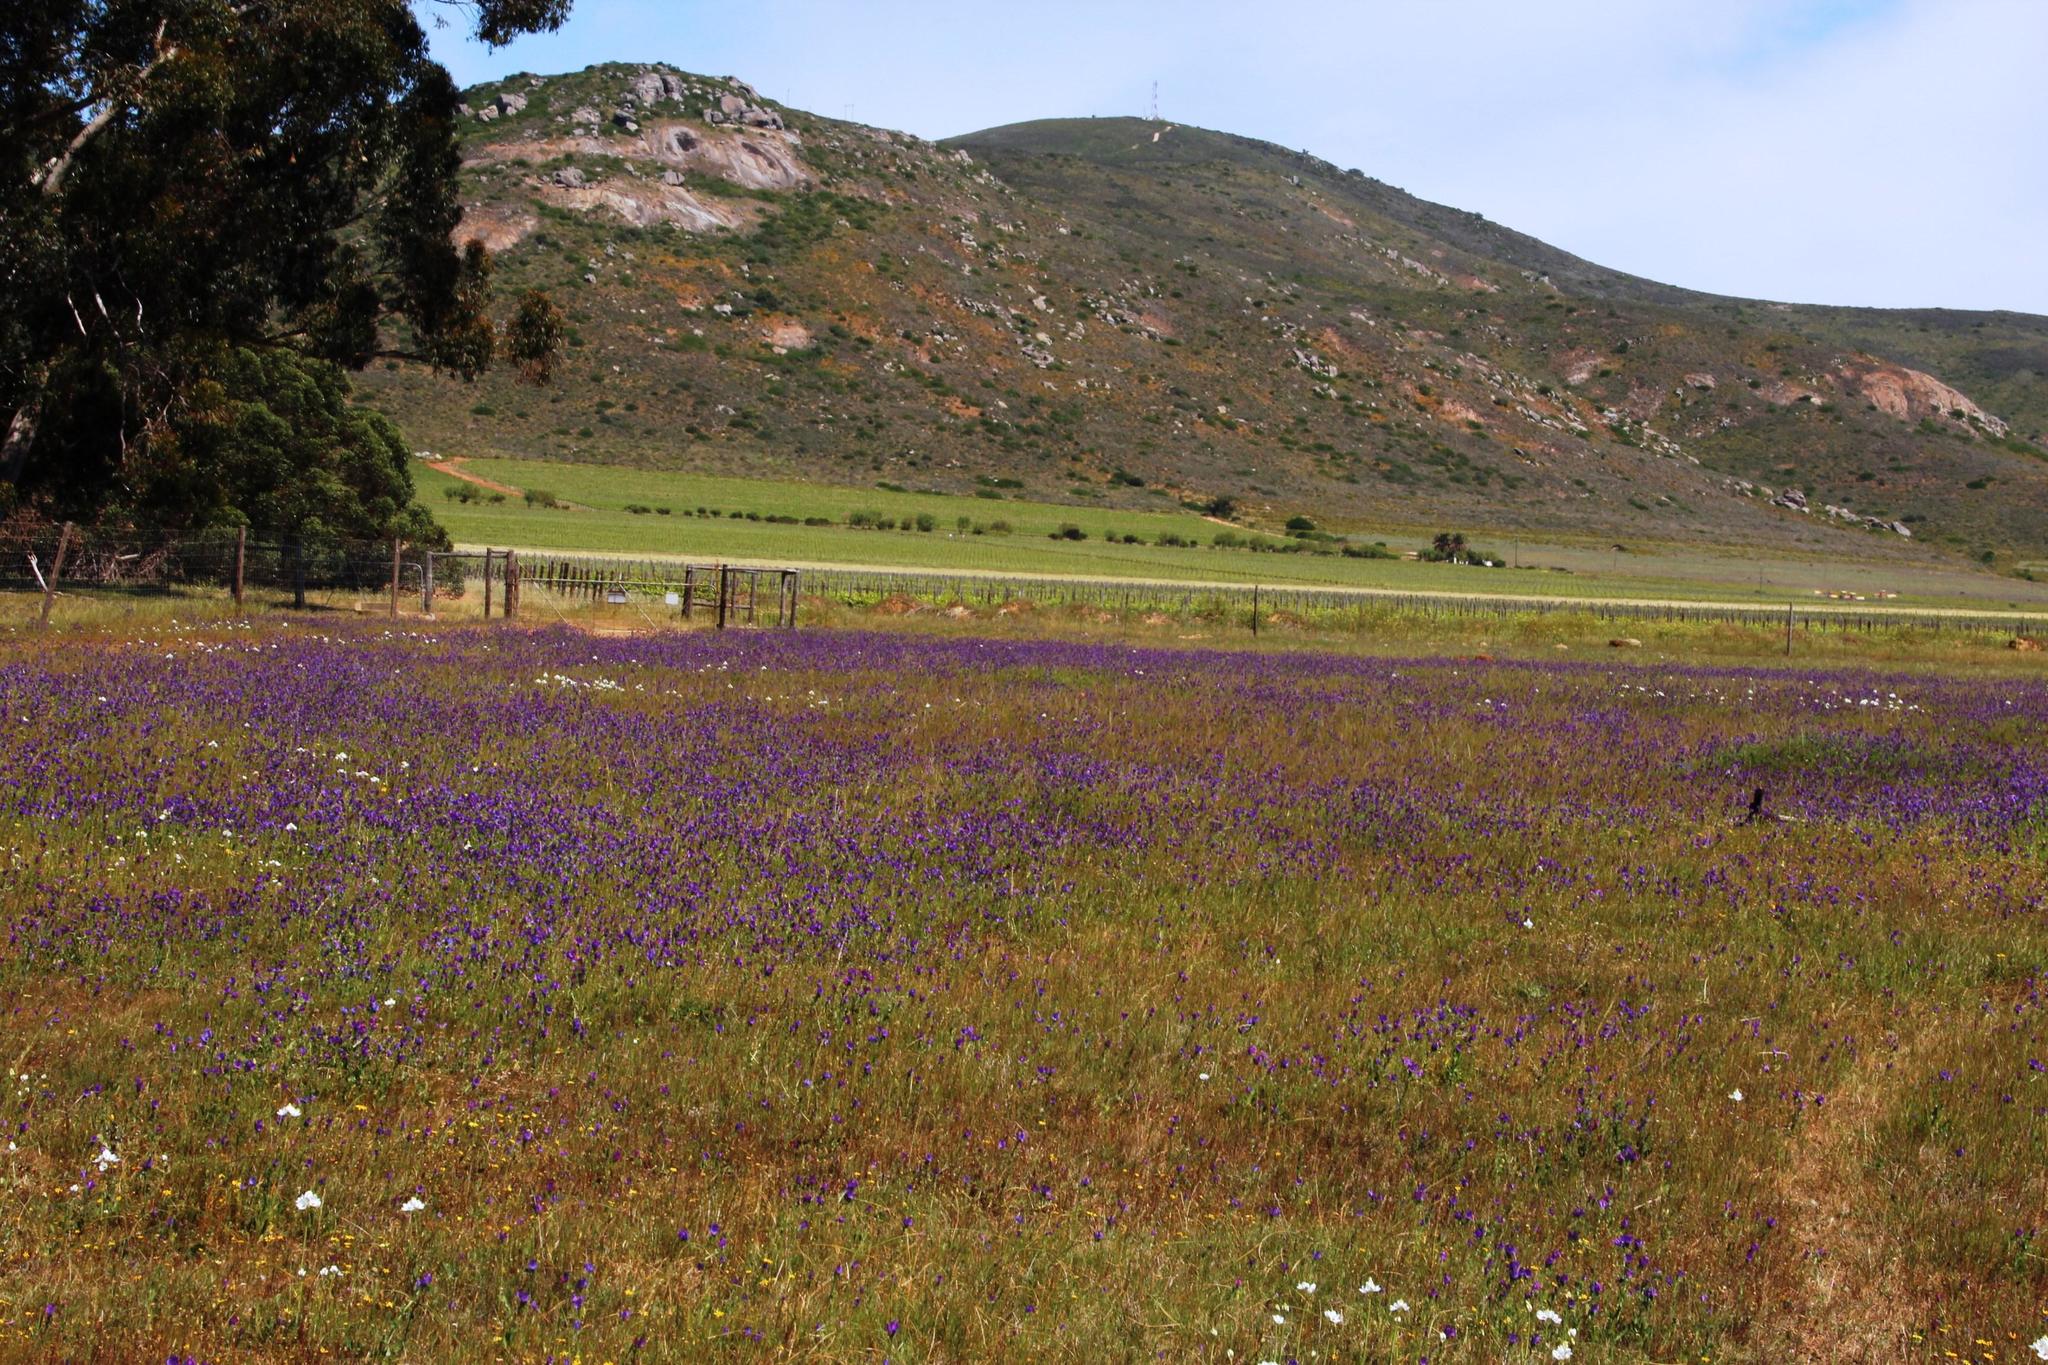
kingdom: Plantae
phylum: Tracheophyta
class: Magnoliopsida
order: Boraginales
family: Boraginaceae
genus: Echium
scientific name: Echium plantagineum
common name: Purple viper's-bugloss
